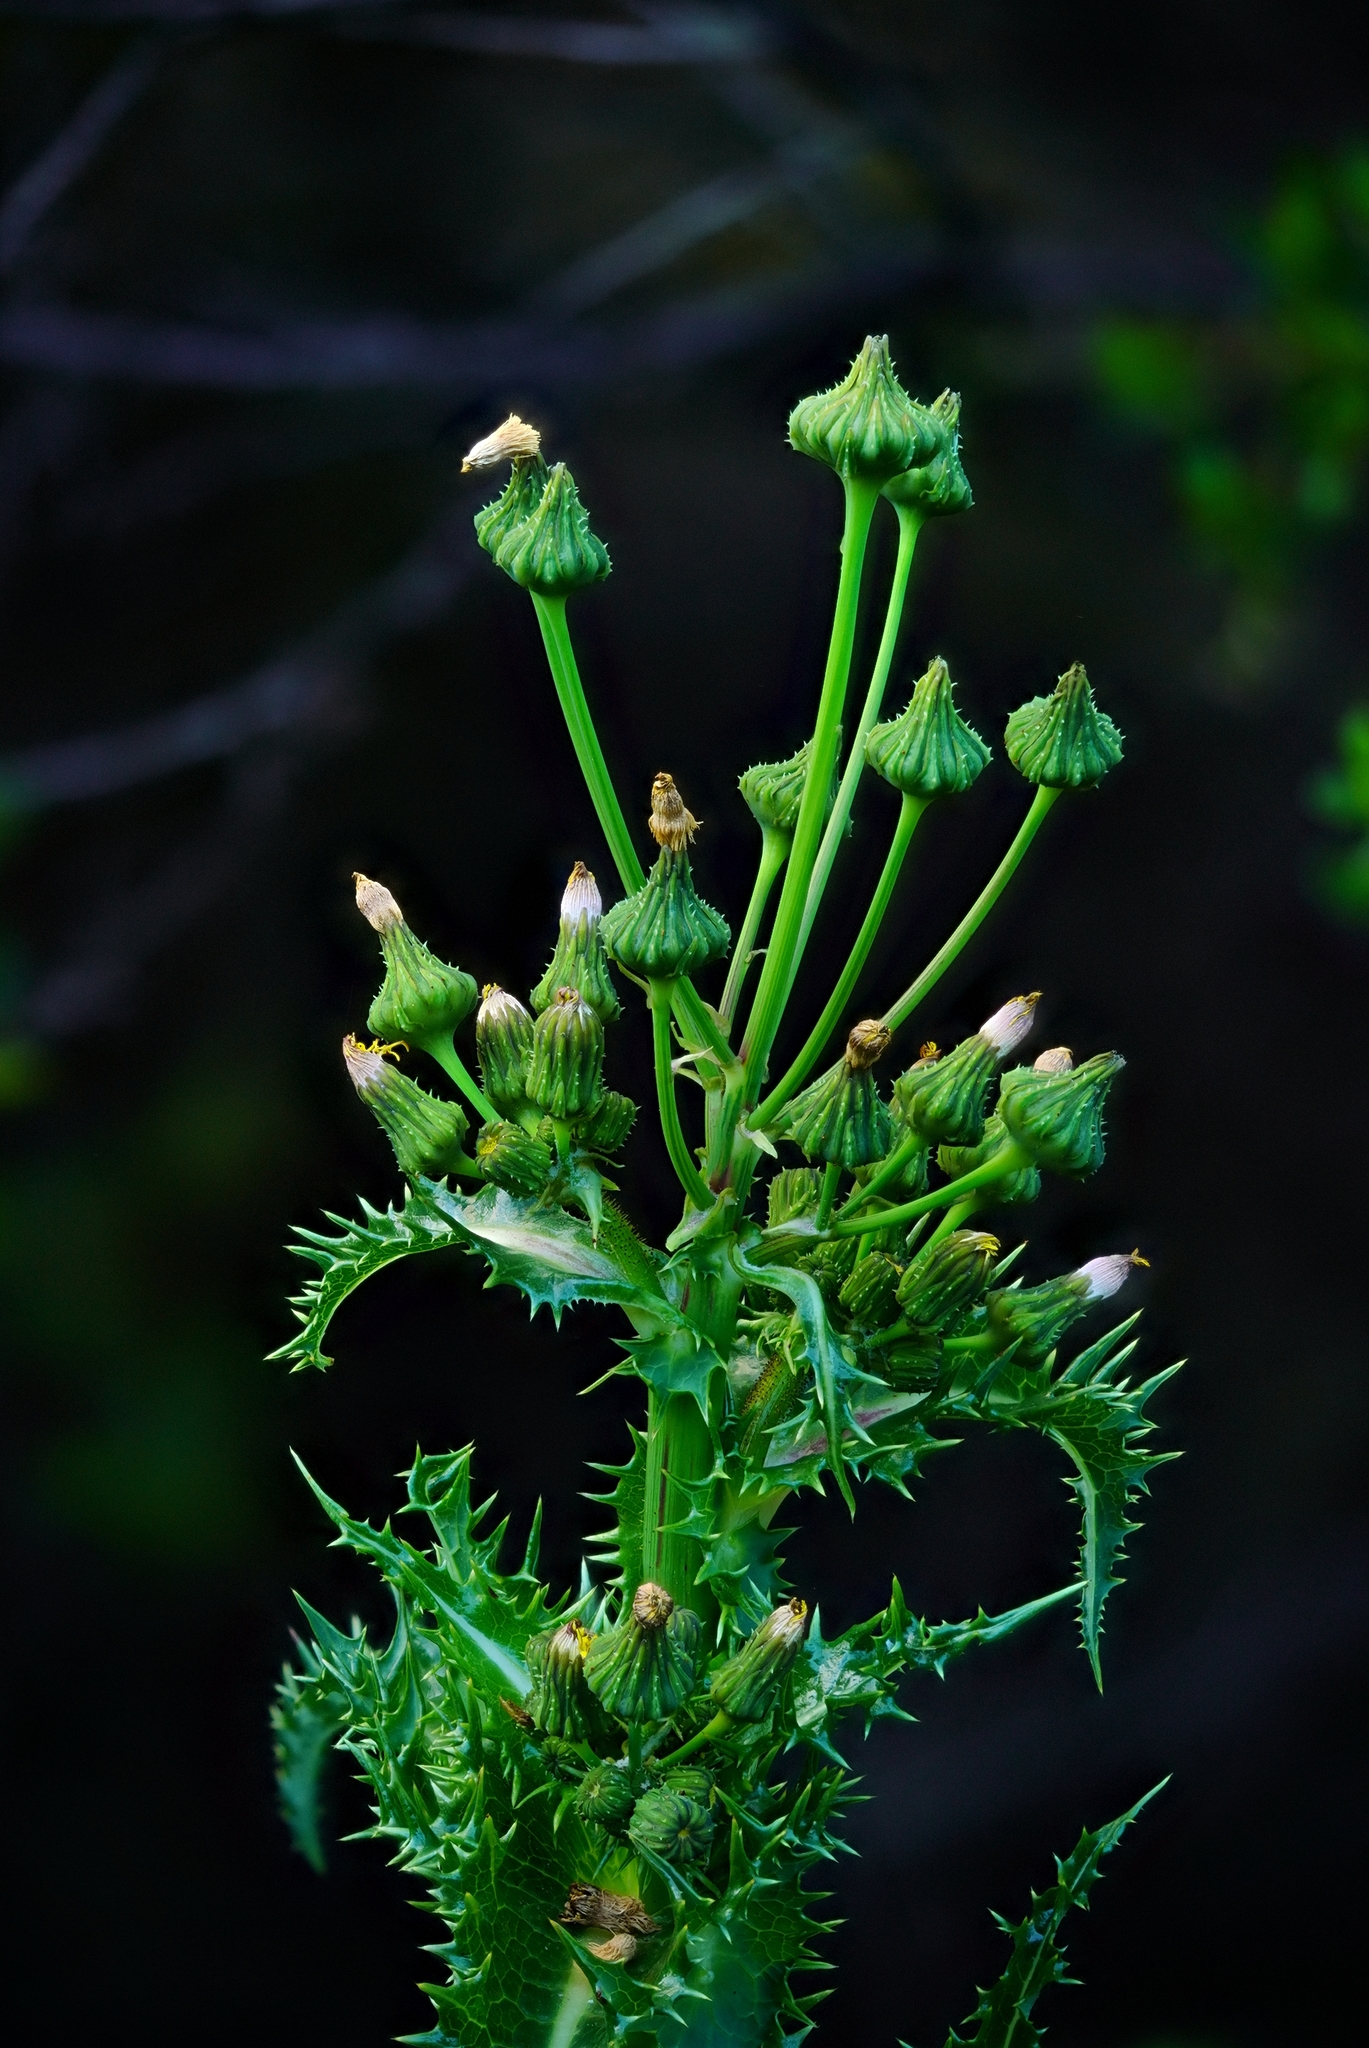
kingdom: Plantae
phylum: Tracheophyta
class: Magnoliopsida
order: Asterales
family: Asteraceae
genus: Sonchus
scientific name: Sonchus asper
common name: Prickly sow-thistle
